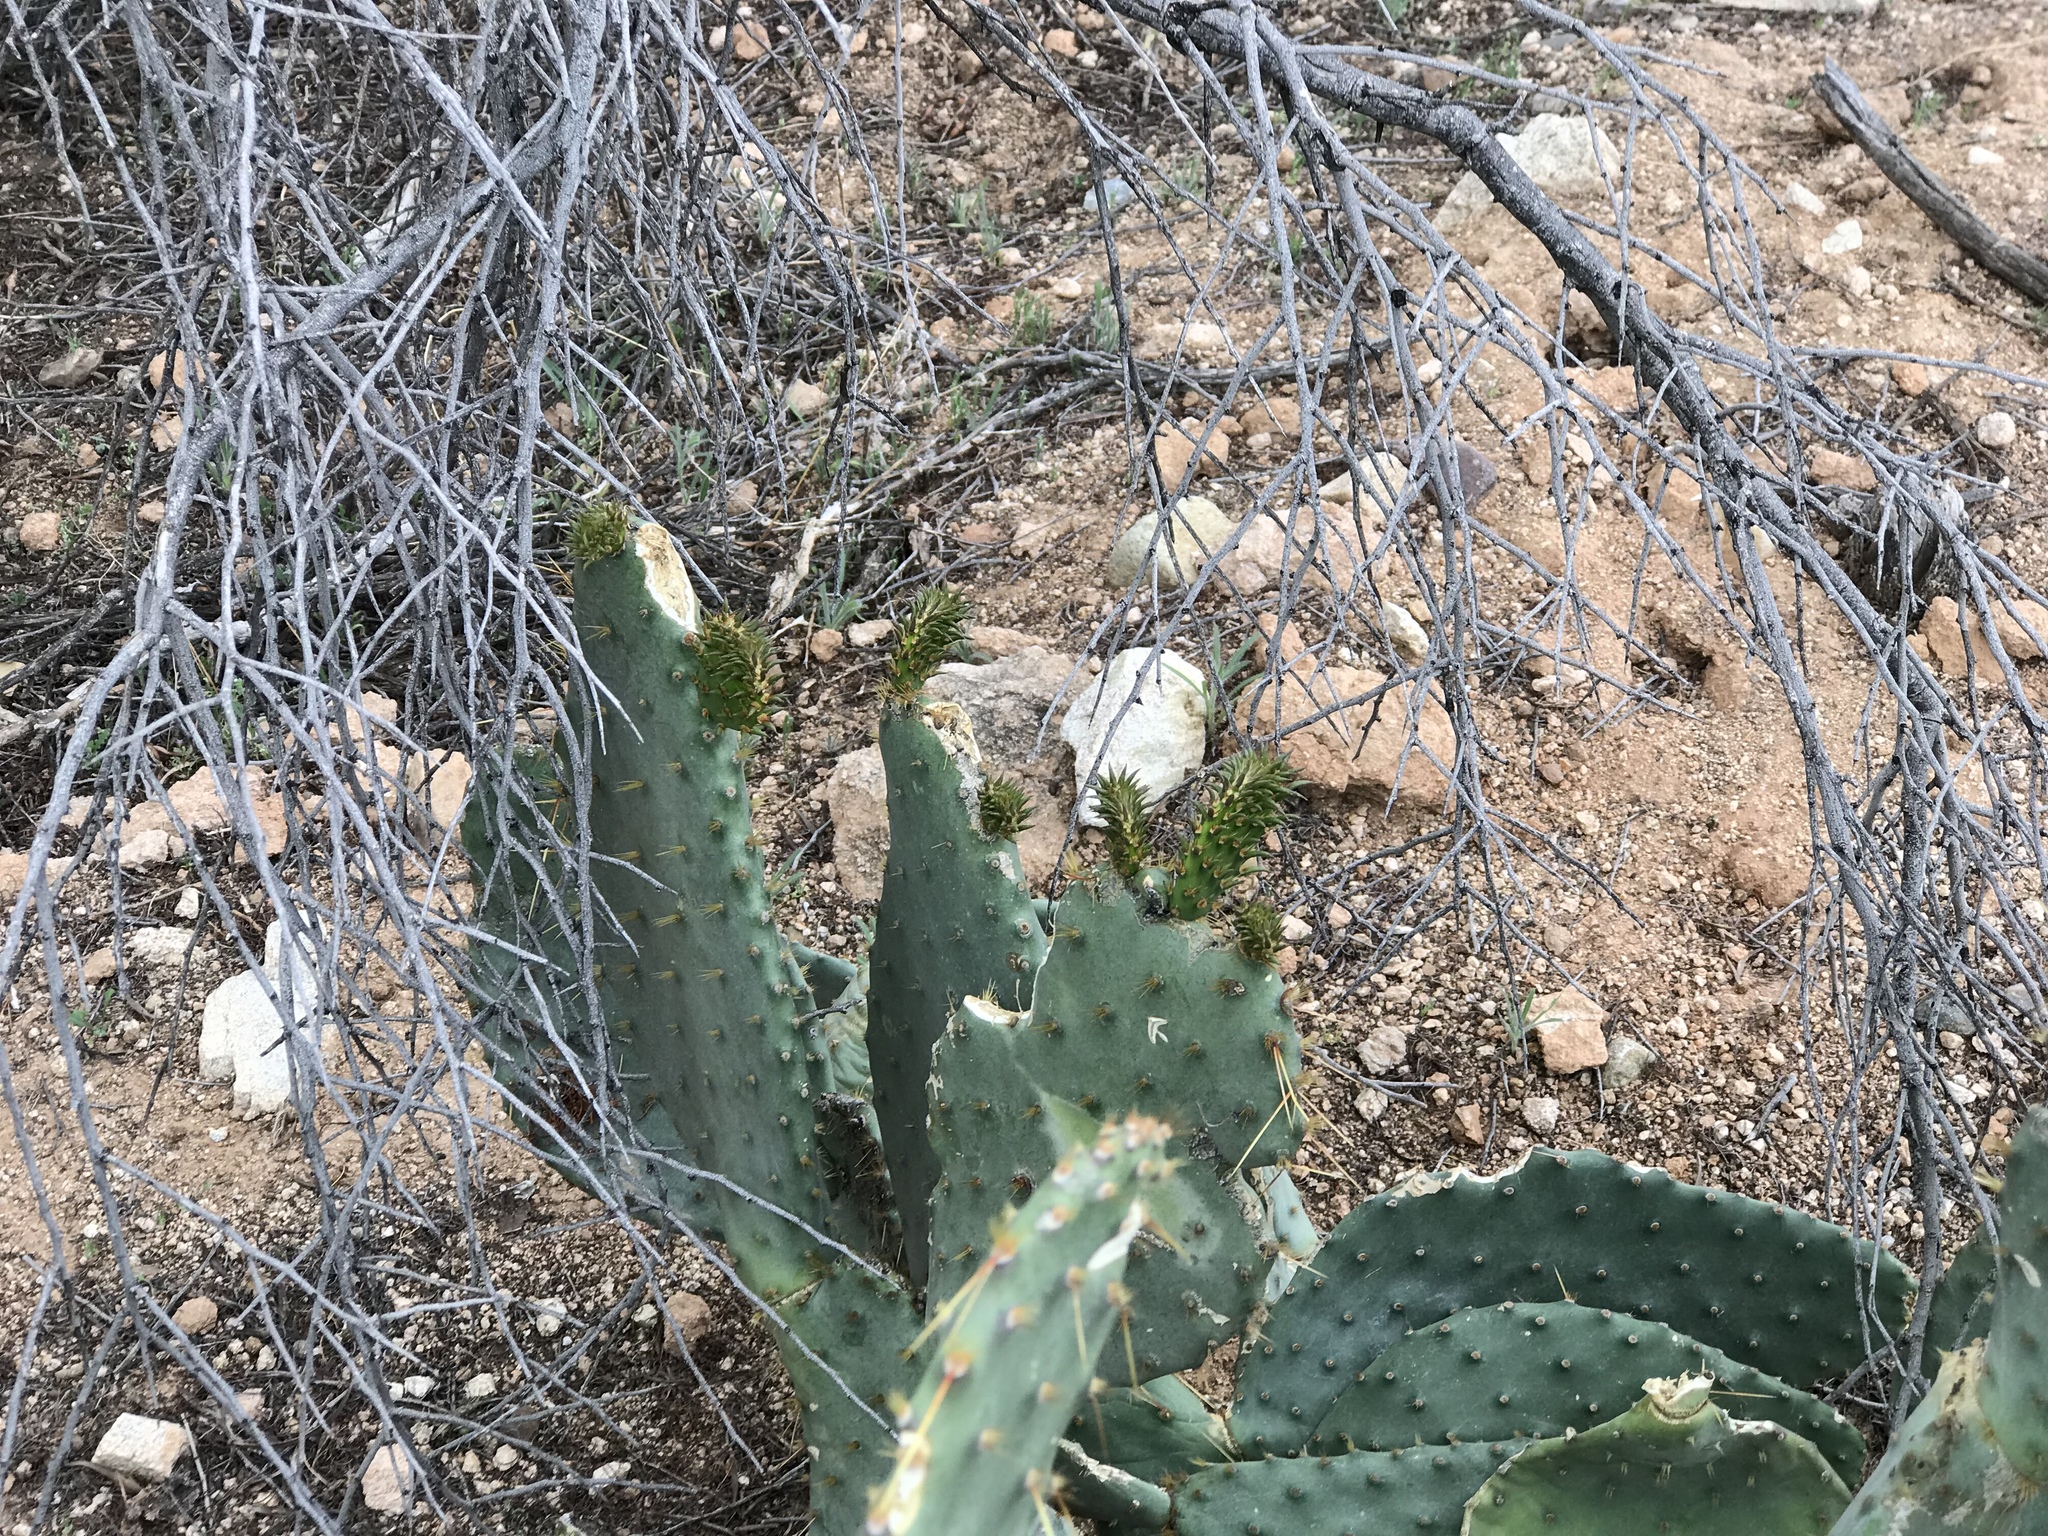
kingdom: Plantae
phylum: Tracheophyta
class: Magnoliopsida
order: Caryophyllales
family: Cactaceae
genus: Opuntia
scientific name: Opuntia engelmannii
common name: Cactus-apple
